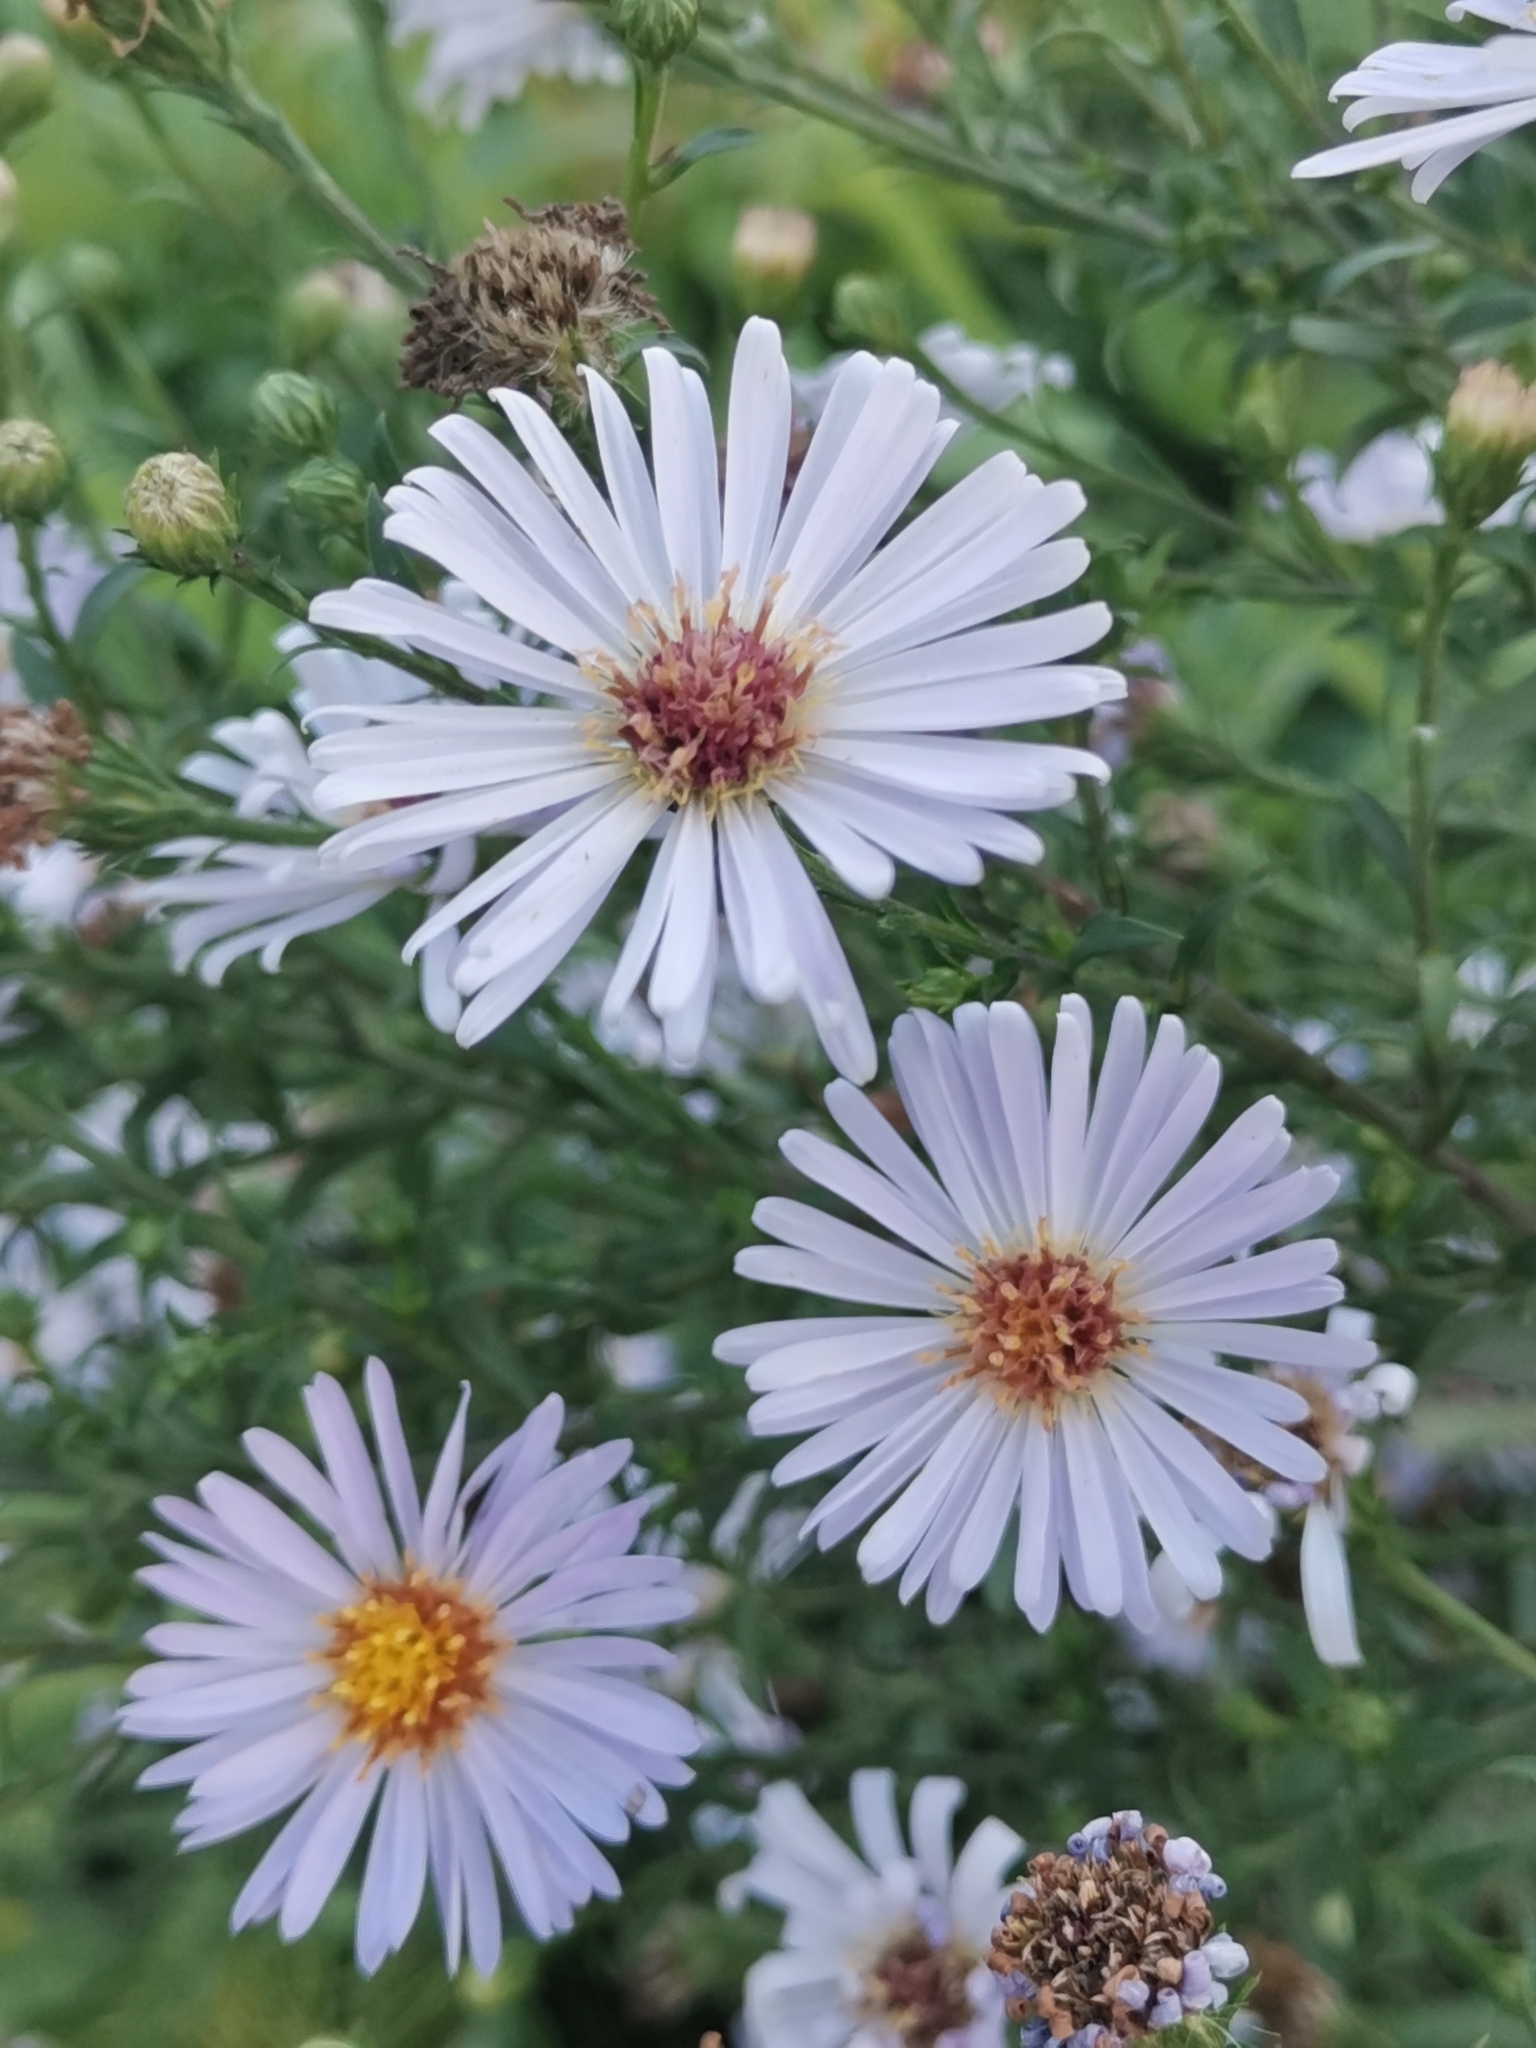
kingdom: Plantae
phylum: Tracheophyta
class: Magnoliopsida
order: Asterales
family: Asteraceae
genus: Symphyotrichum
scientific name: Symphyotrichum novi-belgii
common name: Michaelmas daisy
